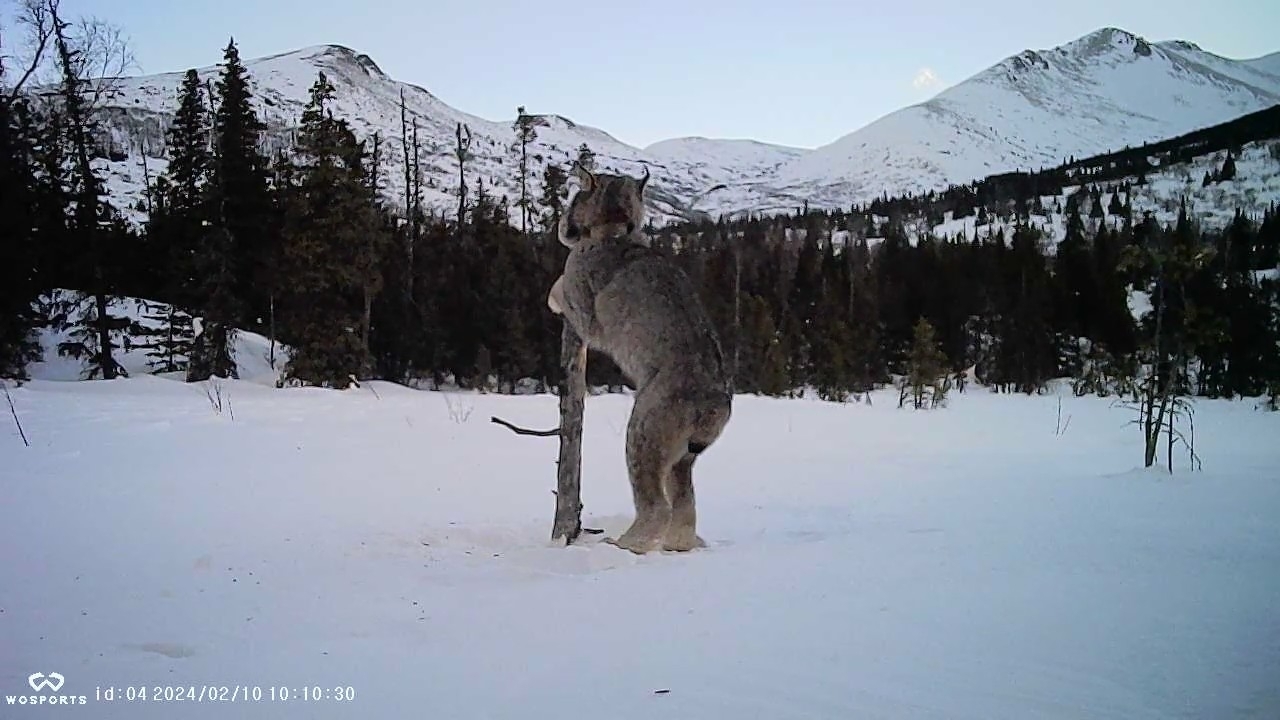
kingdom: Animalia
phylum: Chordata
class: Mammalia
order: Carnivora
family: Felidae
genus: Lynx
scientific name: Lynx canadensis
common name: Canadian lynx
